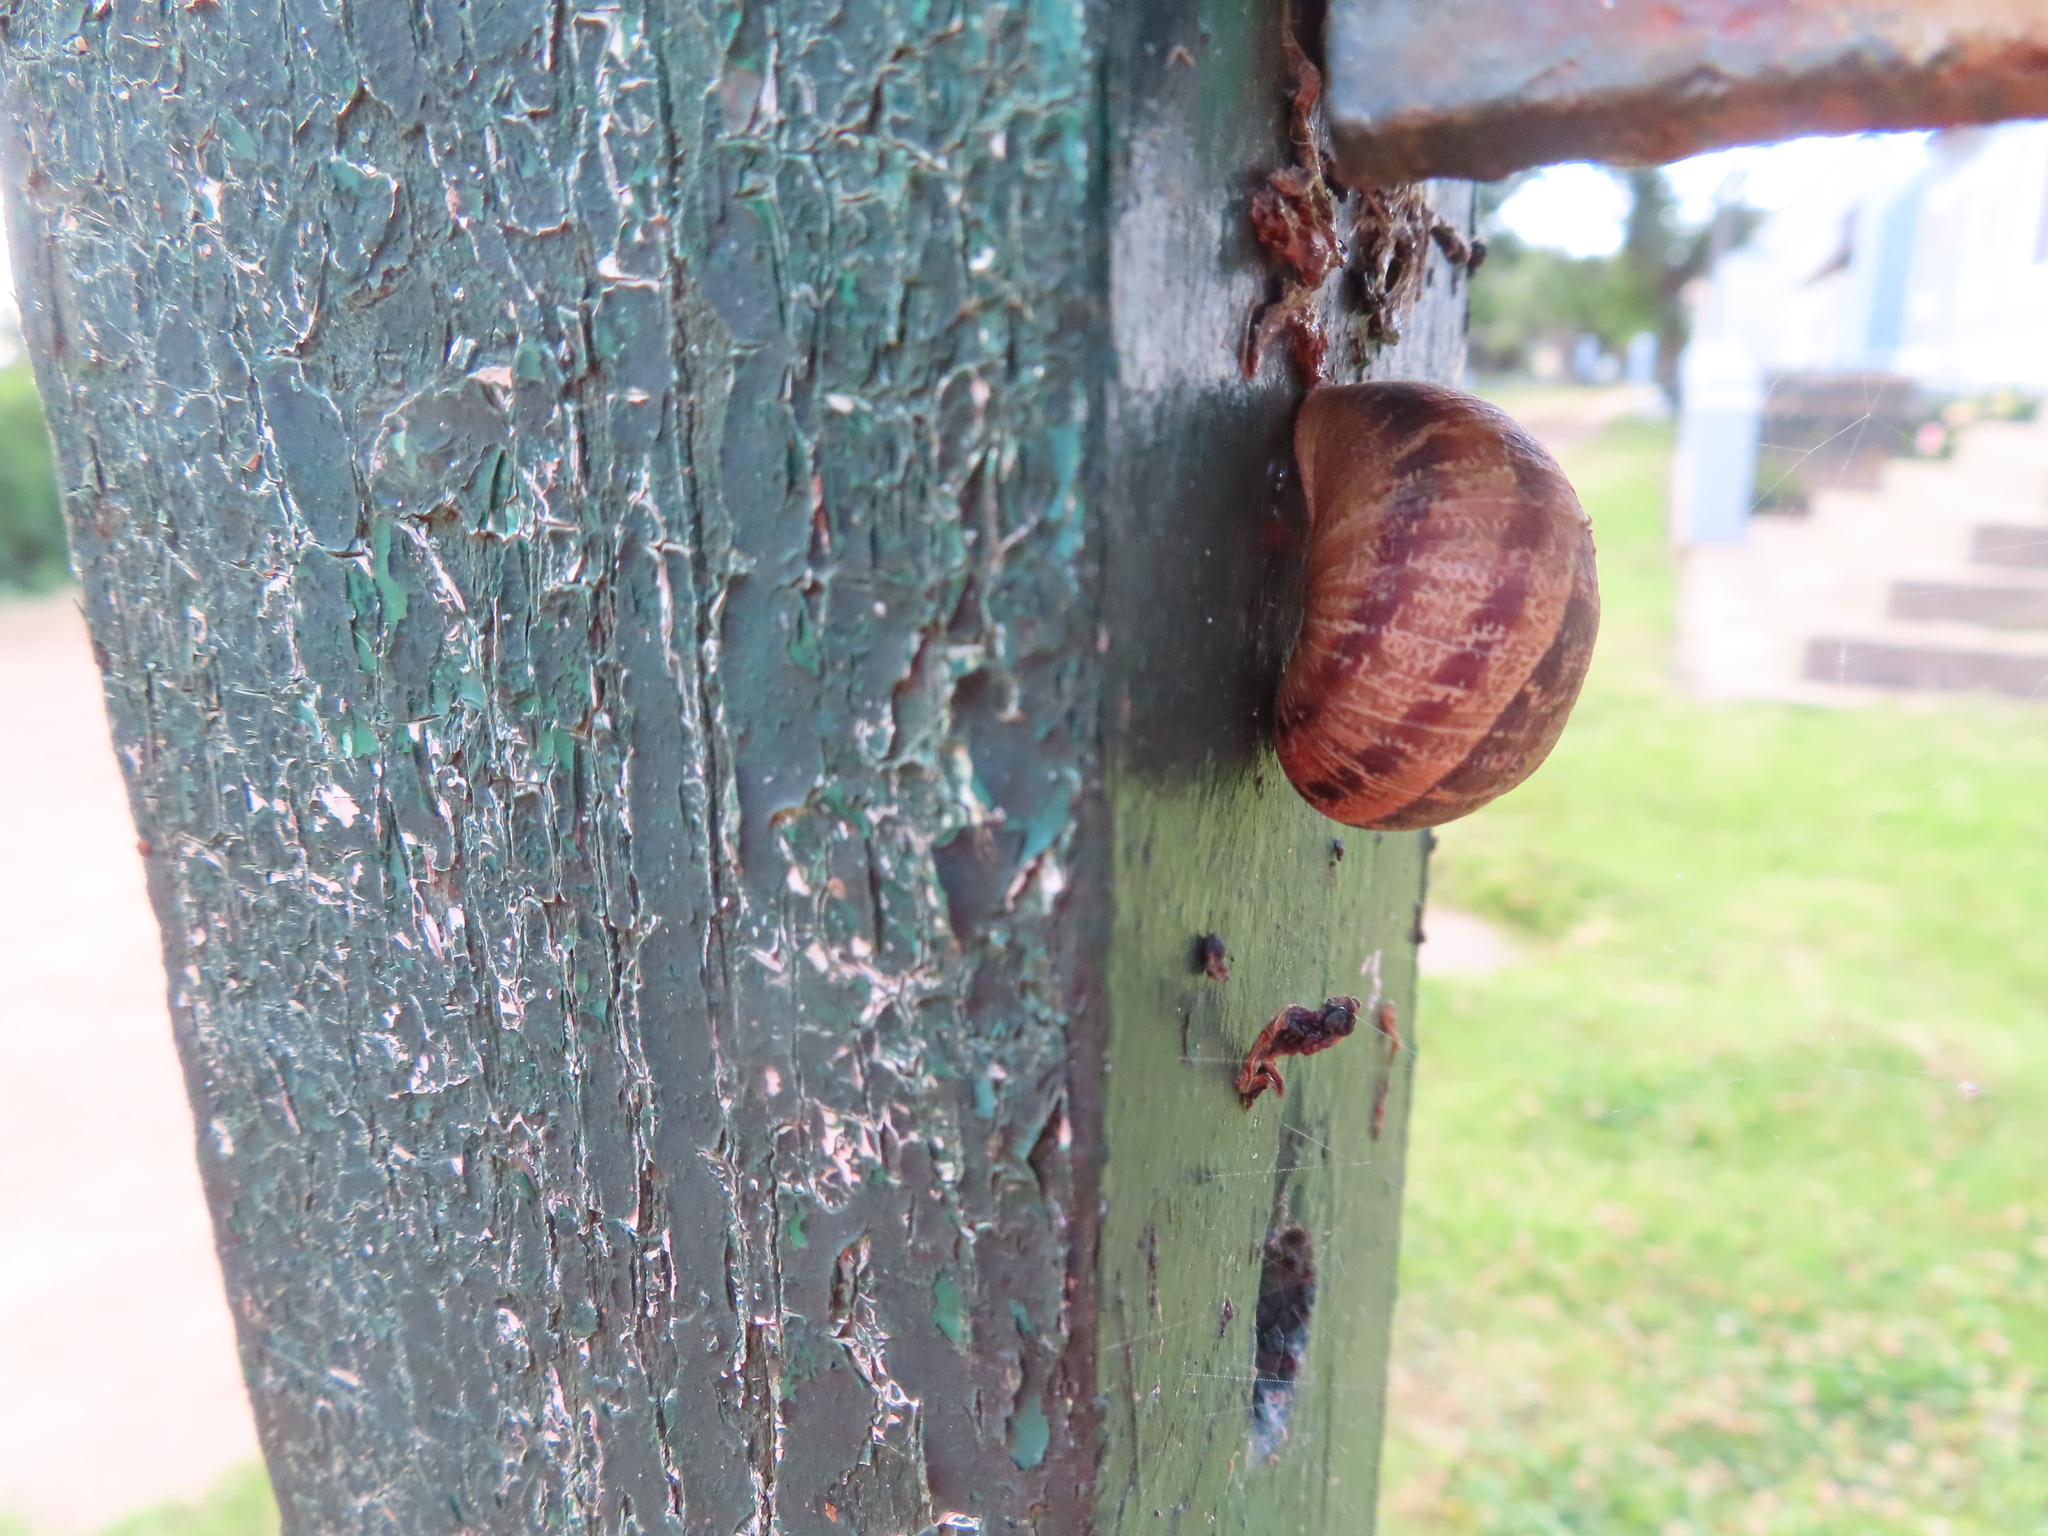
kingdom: Animalia
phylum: Mollusca
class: Gastropoda
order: Stylommatophora
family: Helicidae
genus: Cornu
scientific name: Cornu aspersum
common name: Brown garden snail
